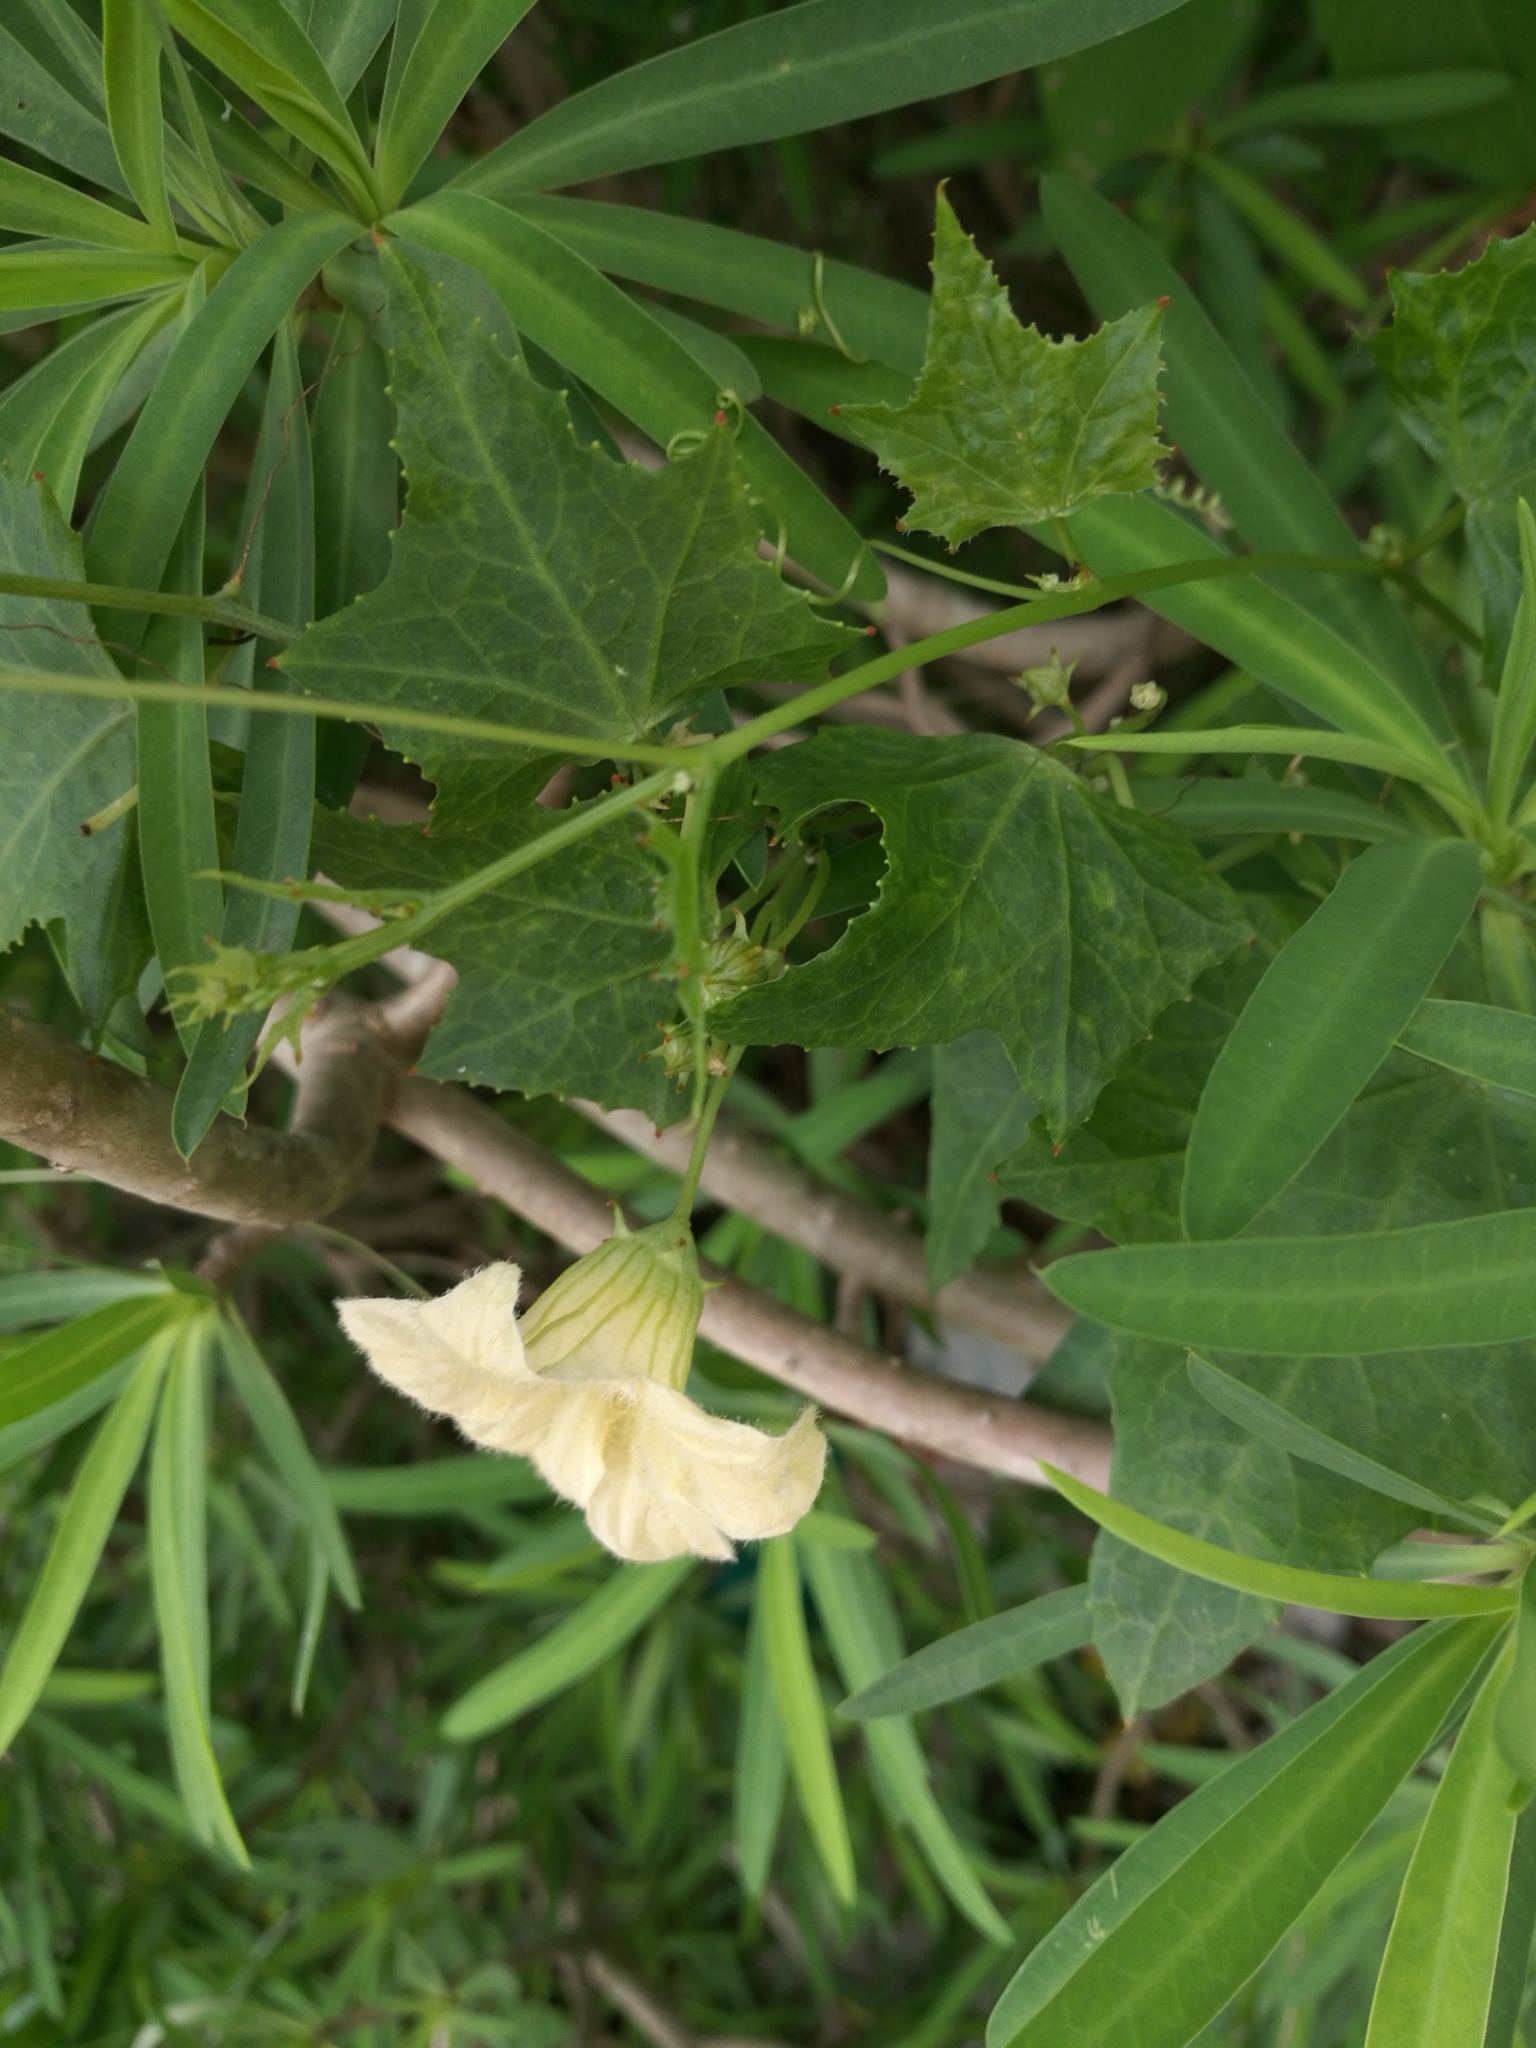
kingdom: Plantae
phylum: Tracheophyta
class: Magnoliopsida
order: Cucurbitales
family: Cucurbitaceae
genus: Coccinia
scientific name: Coccinia grandis
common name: Ivy gourd
